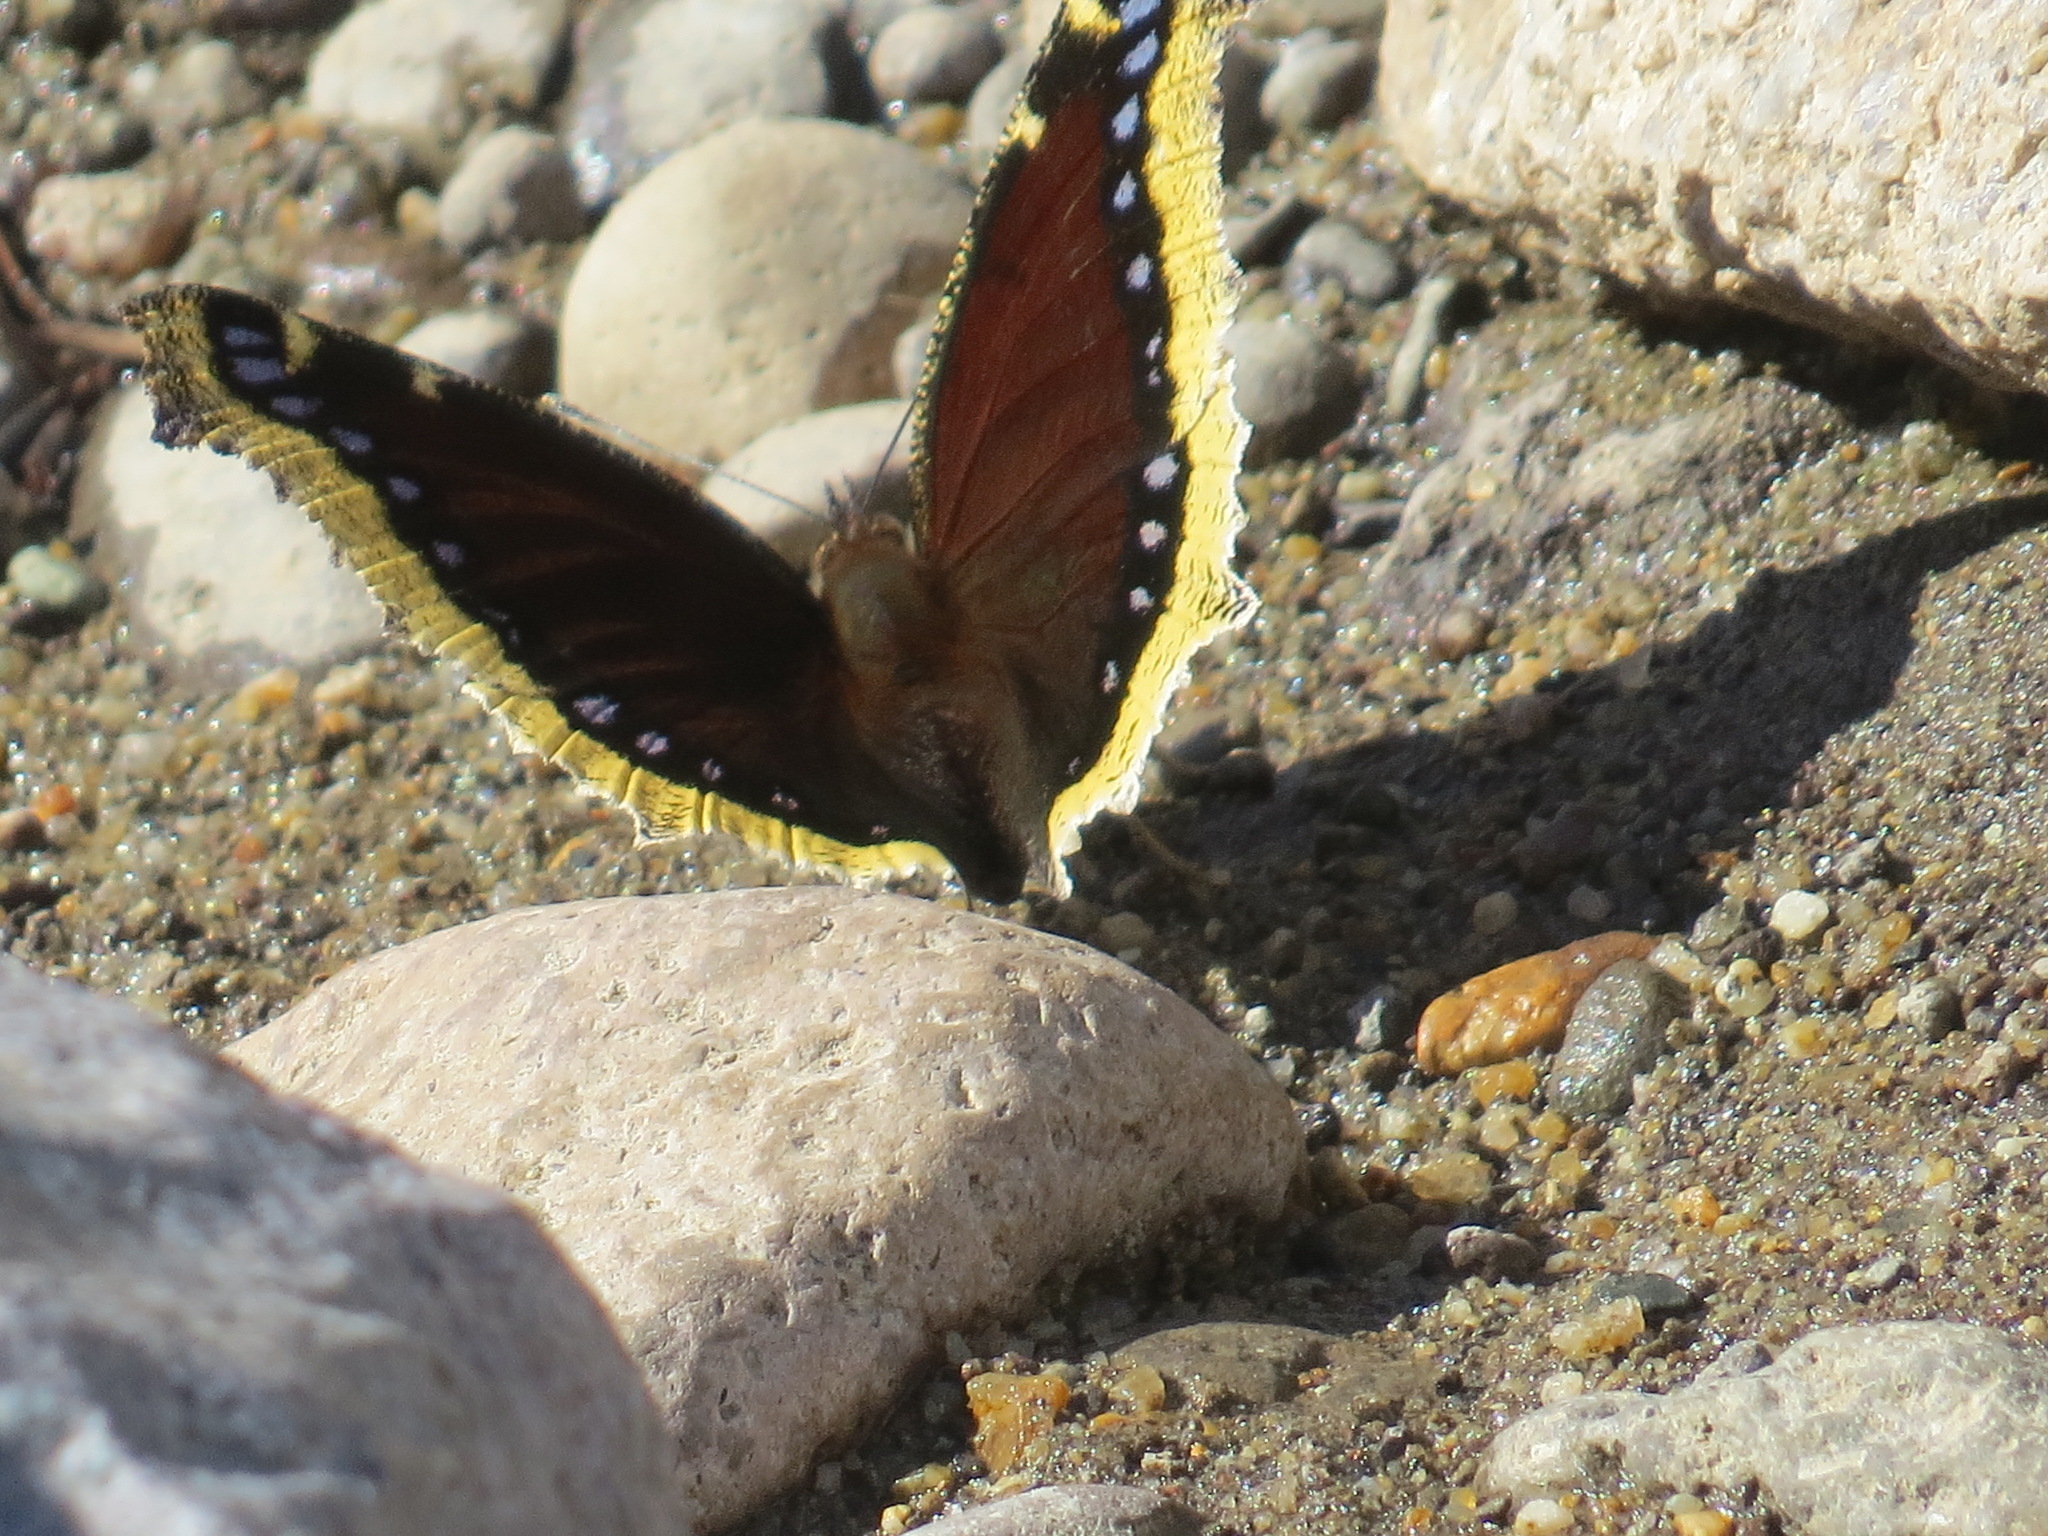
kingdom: Animalia
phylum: Arthropoda
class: Insecta
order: Lepidoptera
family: Nymphalidae
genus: Nymphalis
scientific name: Nymphalis antiopa
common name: Camberwell beauty
